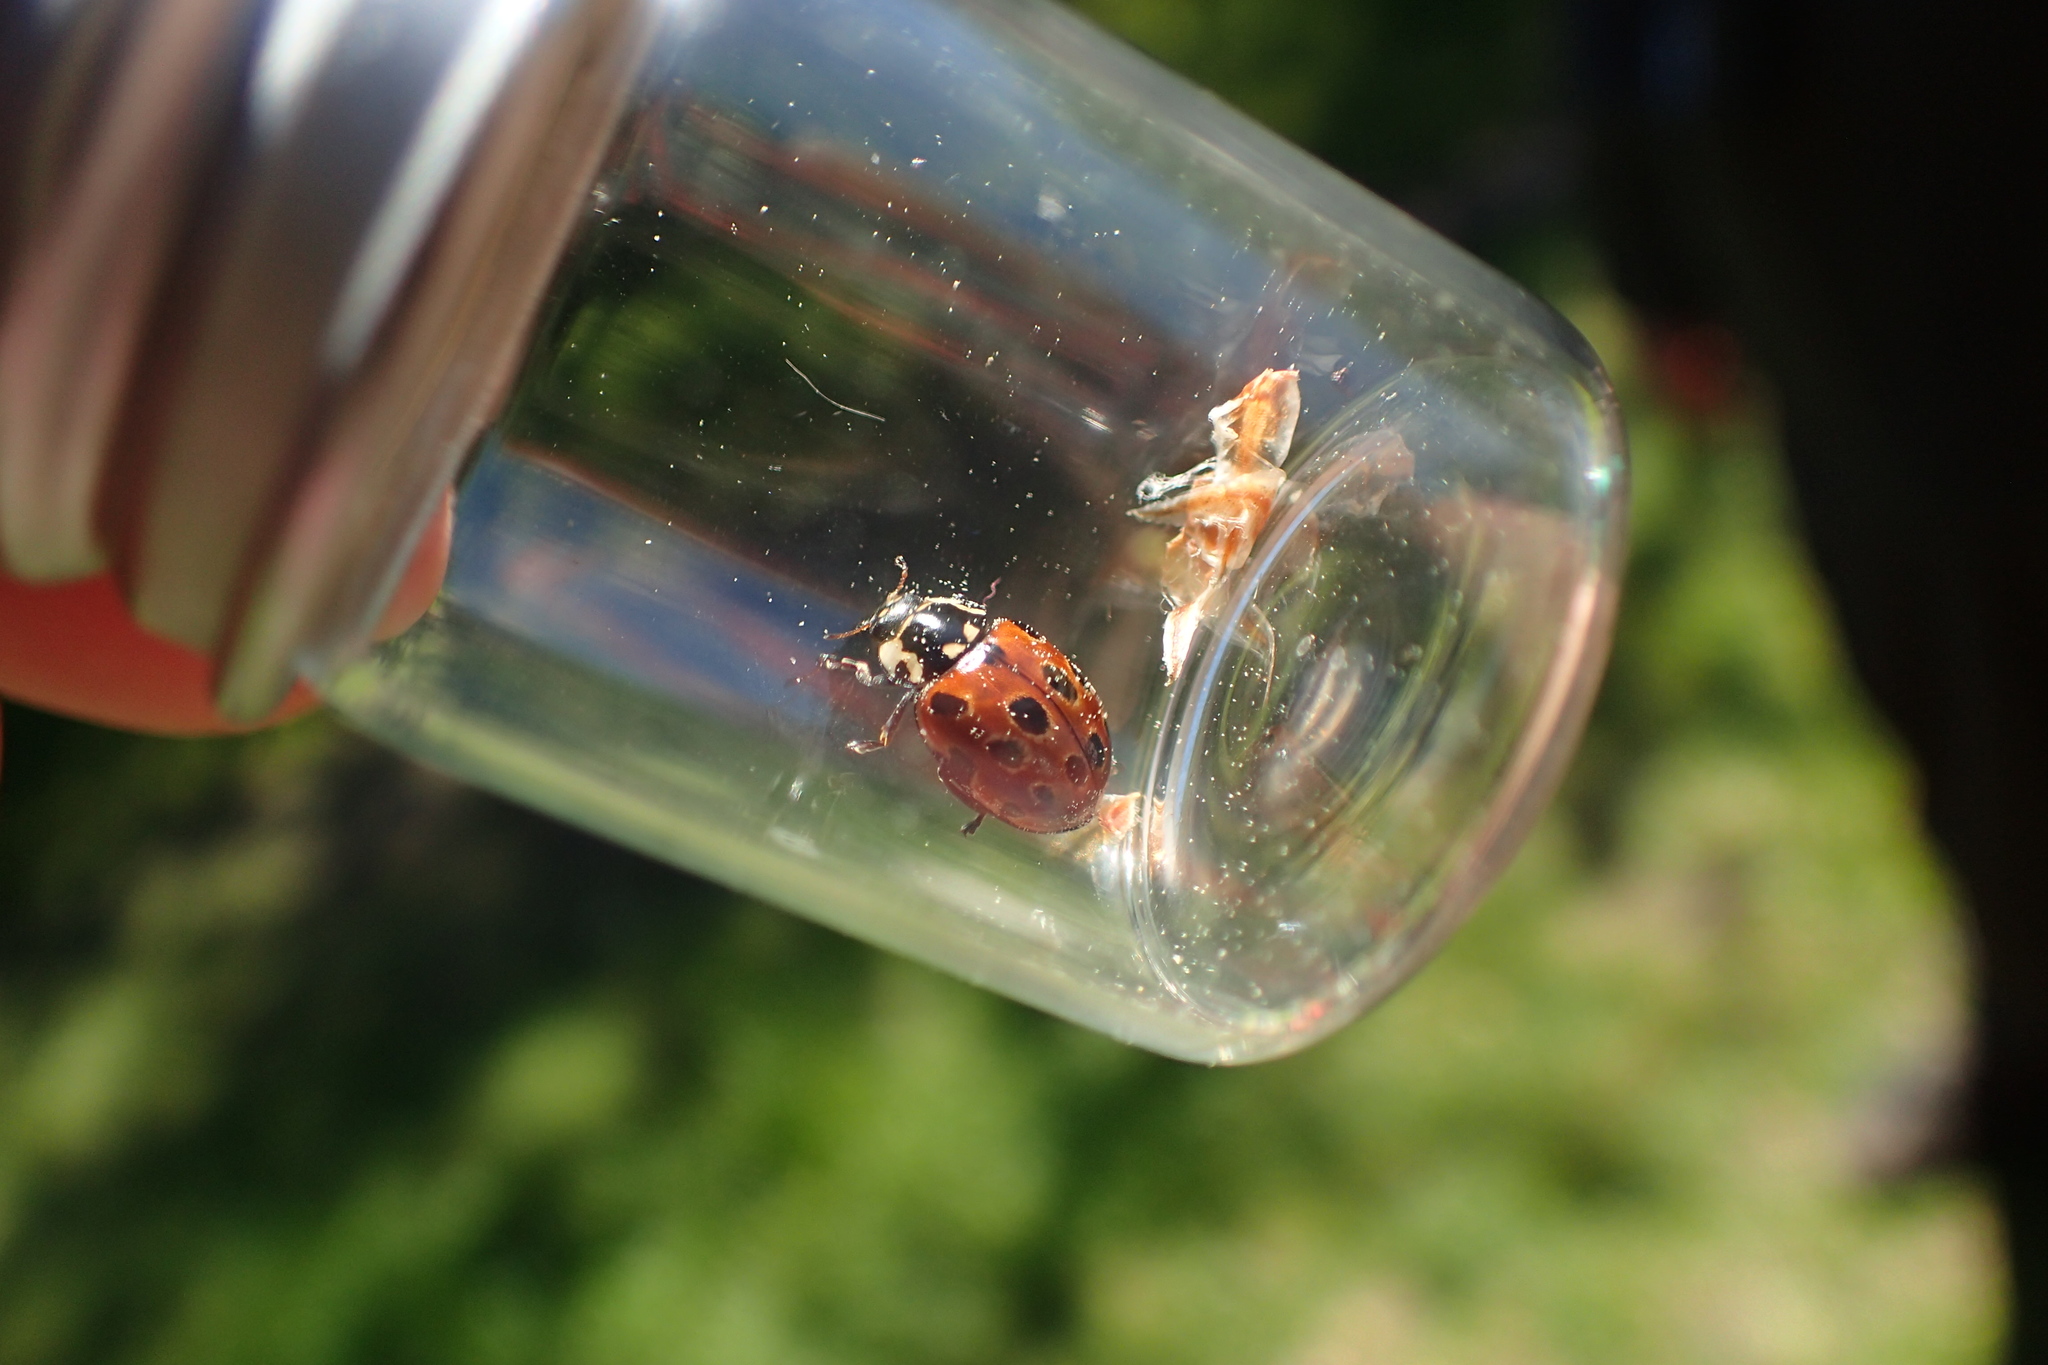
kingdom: Animalia
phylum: Arthropoda
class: Insecta
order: Coleoptera
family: Coccinellidae
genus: Anatis
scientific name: Anatis ocellata
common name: Eyed ladybird
